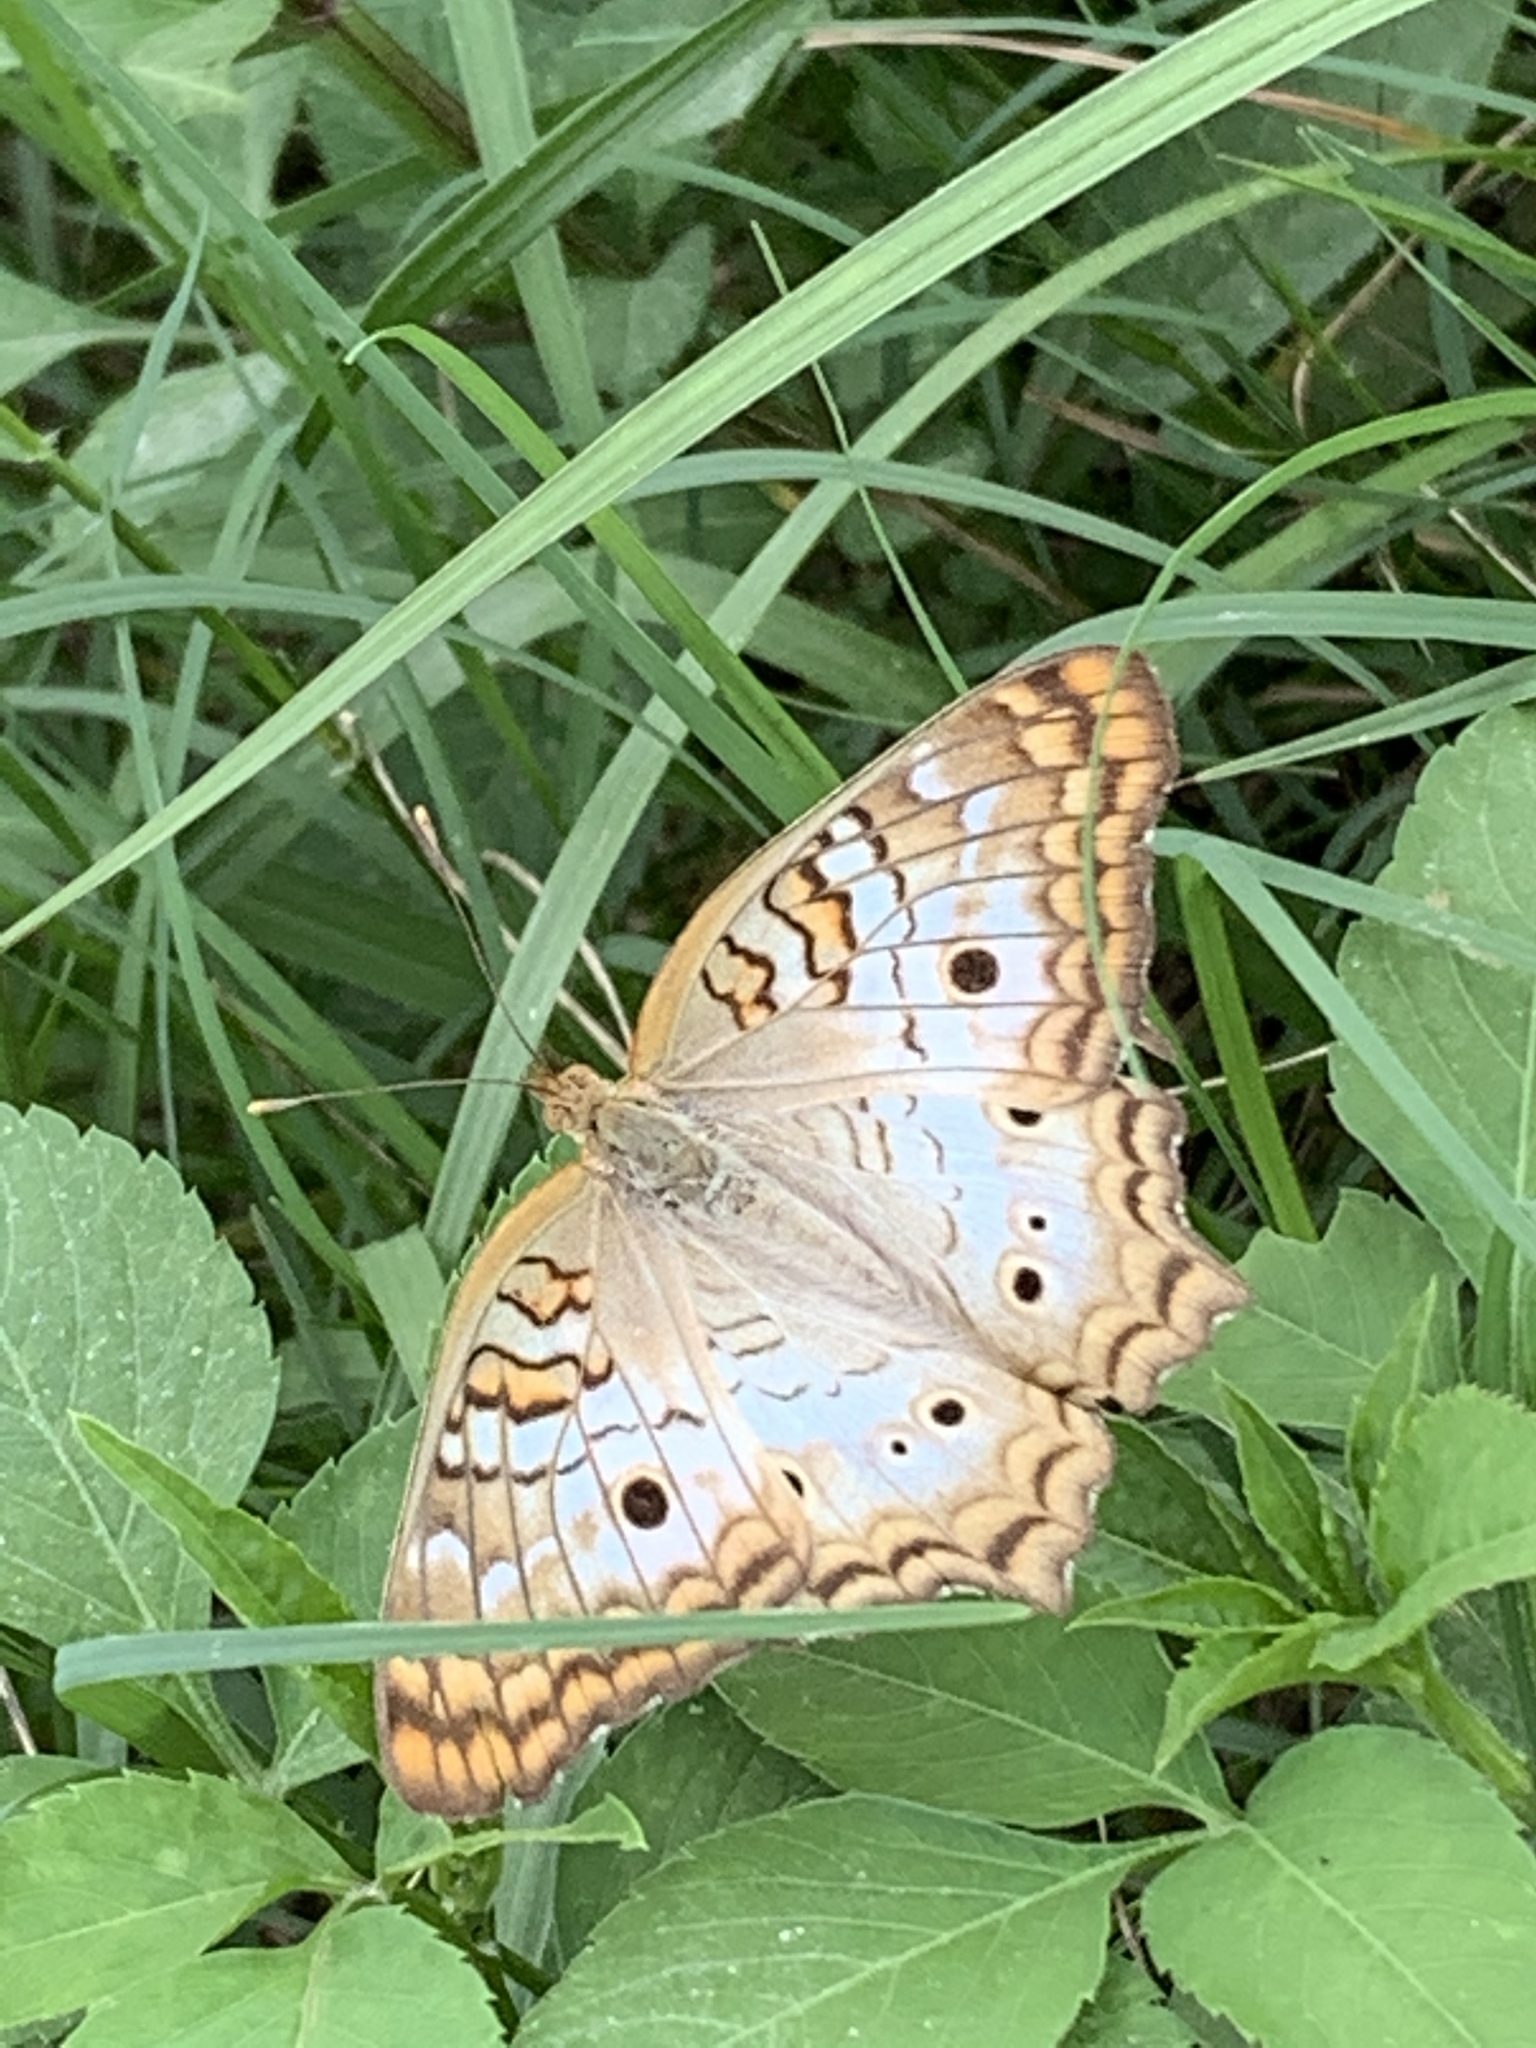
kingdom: Animalia
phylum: Arthropoda
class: Insecta
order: Lepidoptera
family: Nymphalidae
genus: Anartia
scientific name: Anartia jatrophae
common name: White peacock
